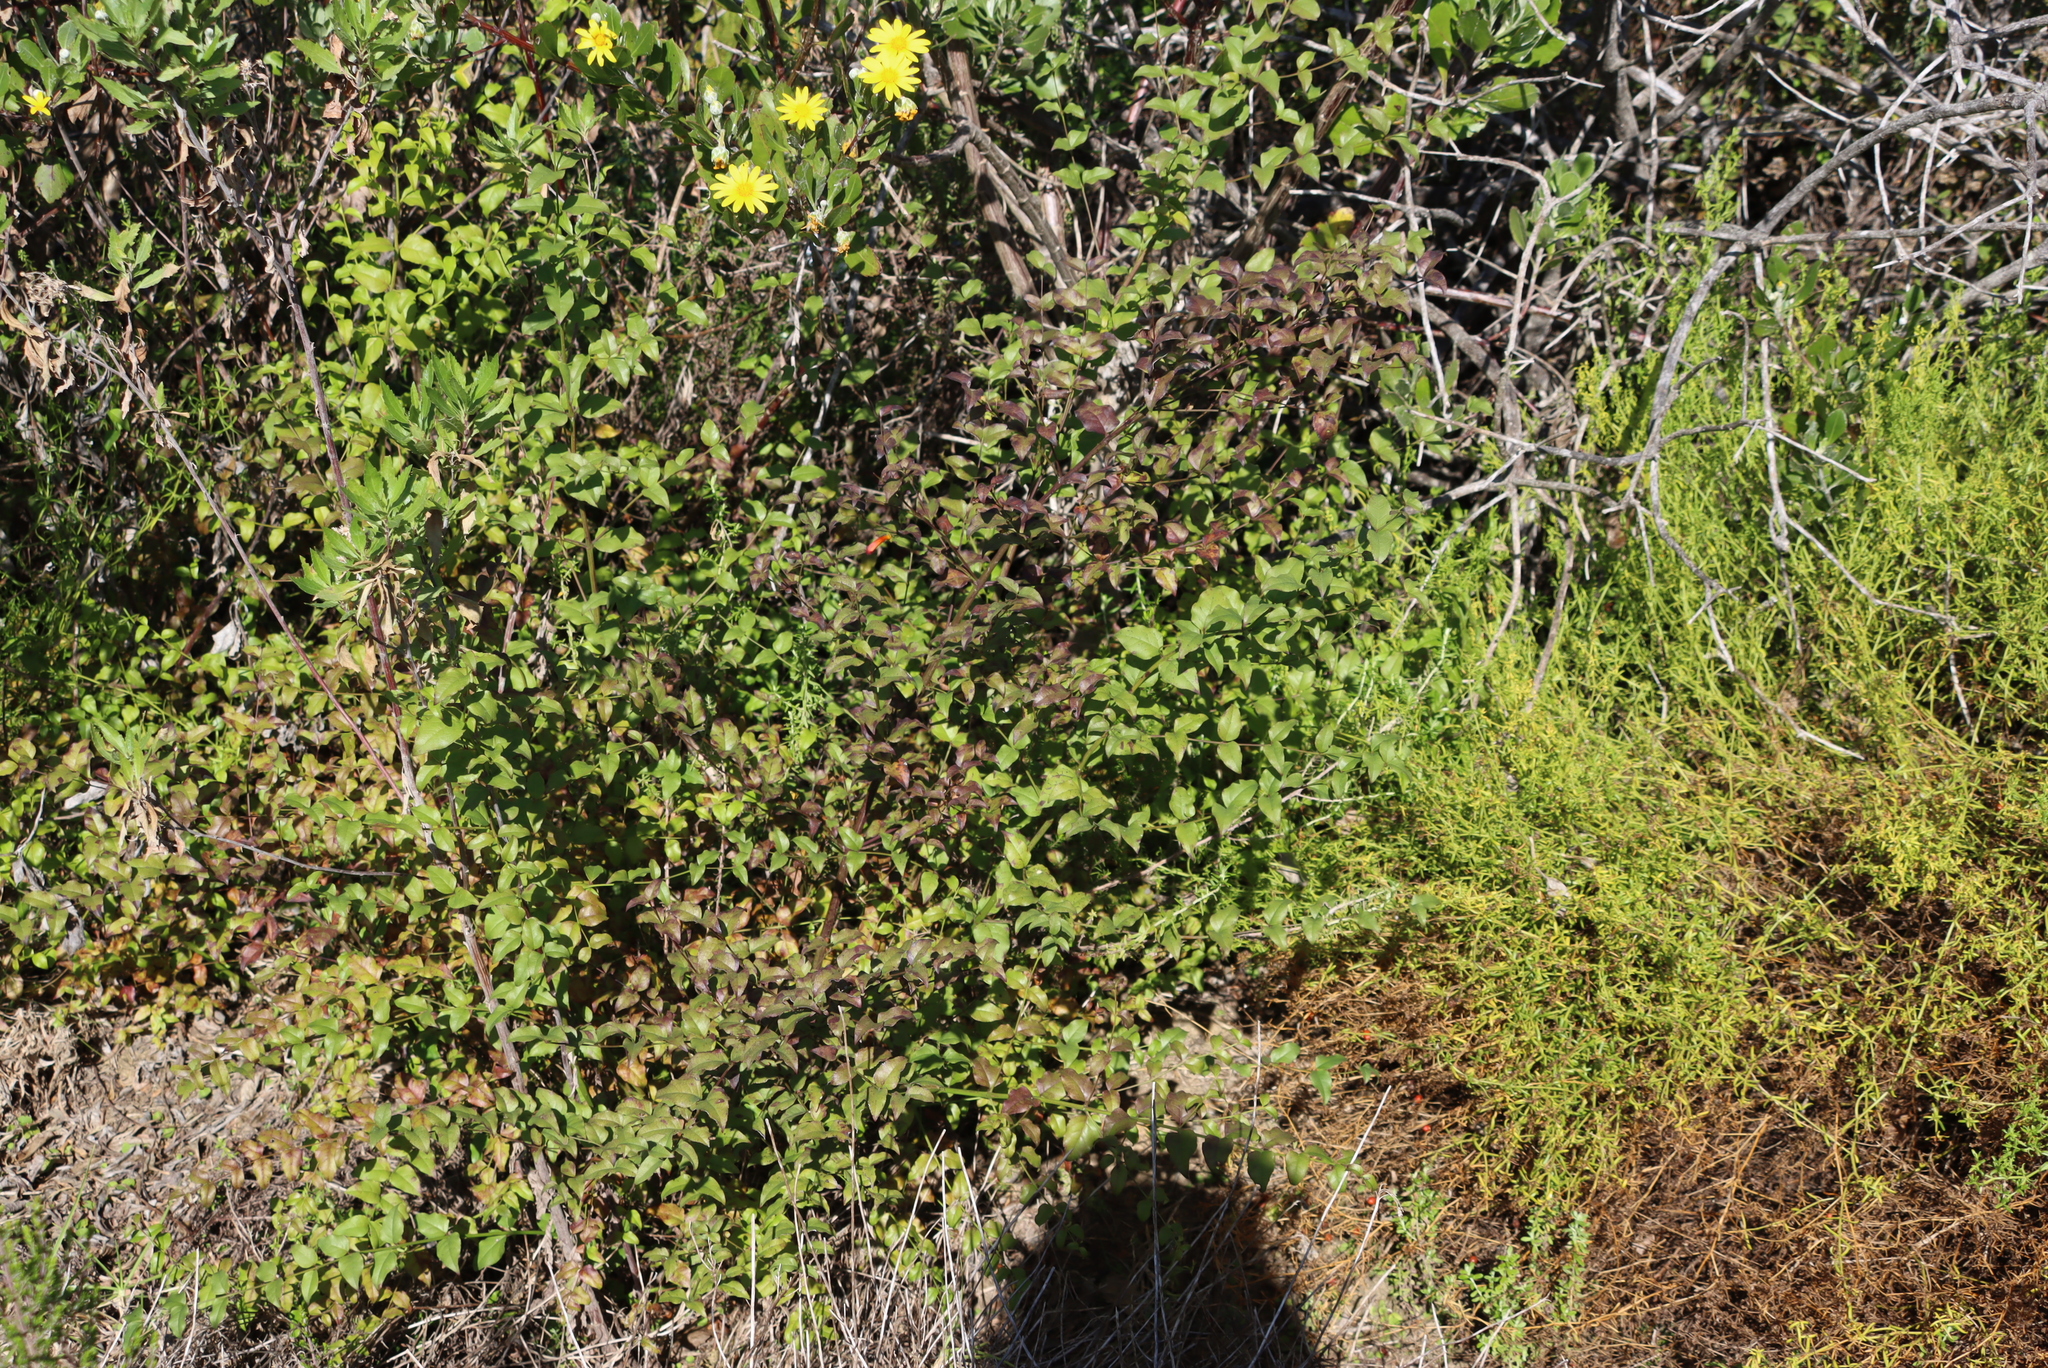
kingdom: Plantae
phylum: Tracheophyta
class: Magnoliopsida
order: Lamiales
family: Stilbaceae
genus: Halleria
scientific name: Halleria lucida
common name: Tree fuschia
